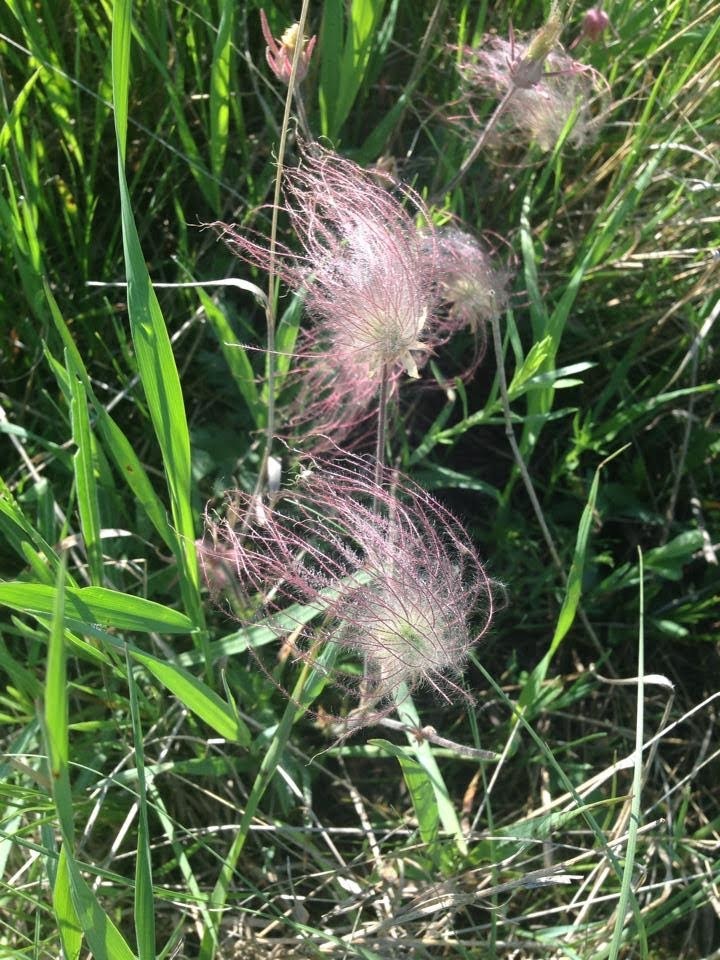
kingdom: Plantae
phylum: Tracheophyta
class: Magnoliopsida
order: Rosales
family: Rosaceae
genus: Geum
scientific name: Geum triflorum
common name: Old man's whiskers
